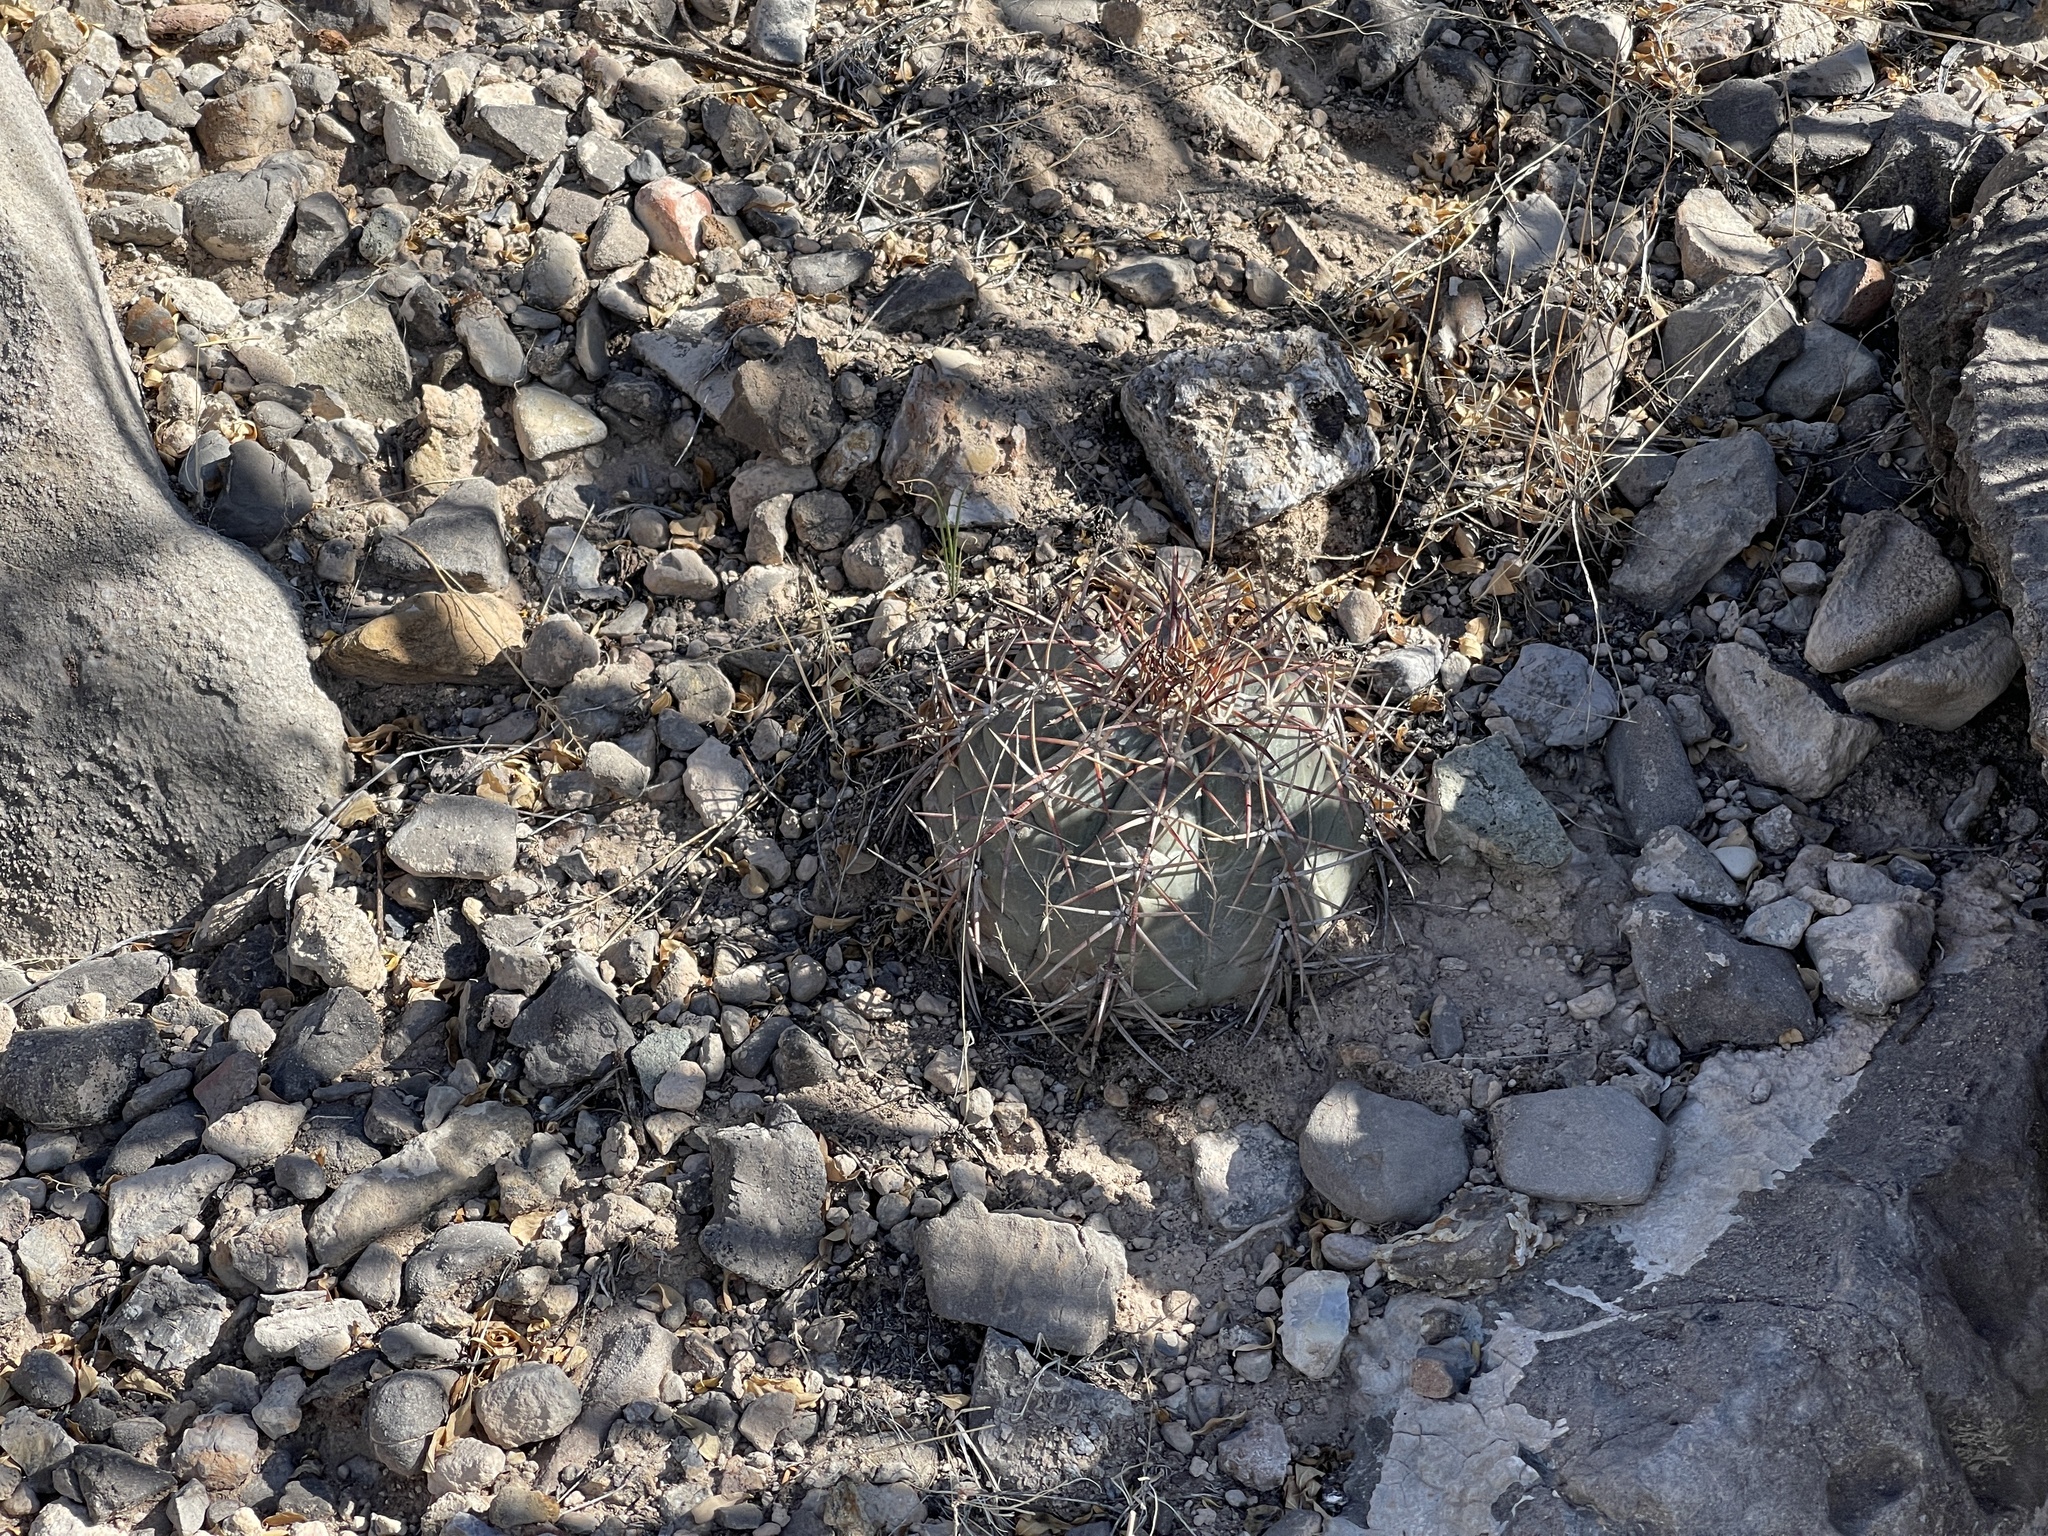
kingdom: Plantae
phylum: Tracheophyta
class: Magnoliopsida
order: Caryophyllales
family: Cactaceae
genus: Echinocactus
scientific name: Echinocactus horizonthalonius
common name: Devilshead
